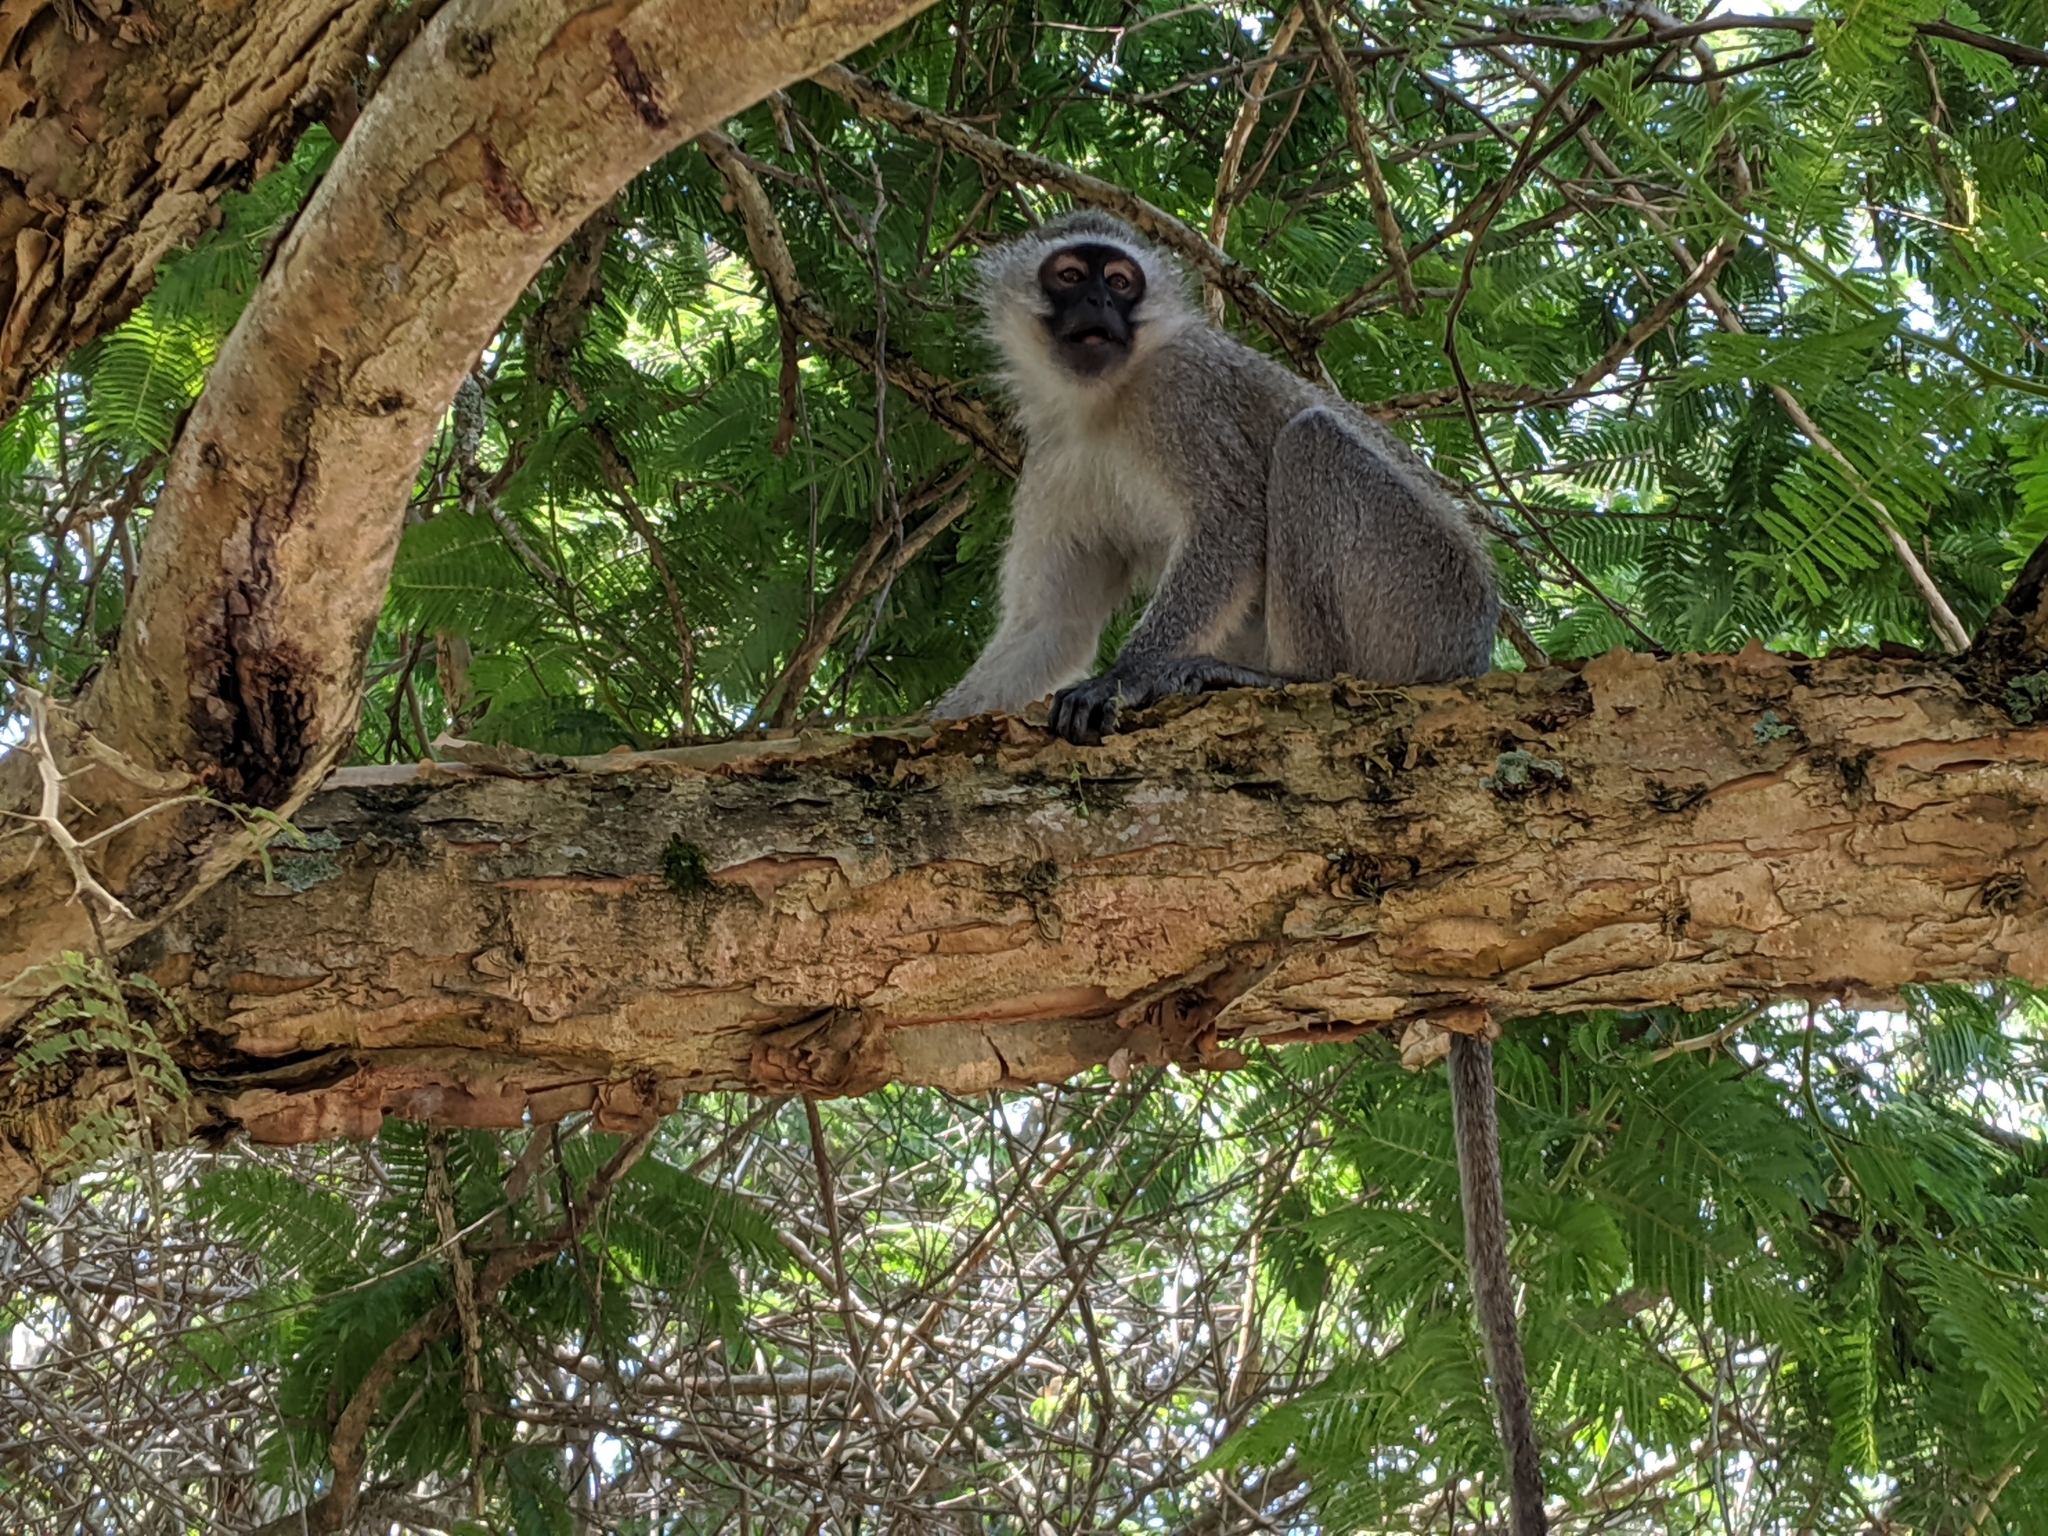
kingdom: Animalia
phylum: Chordata
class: Mammalia
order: Primates
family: Cercopithecidae
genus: Chlorocebus
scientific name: Chlorocebus pygerythrus
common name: Vervet monkey
